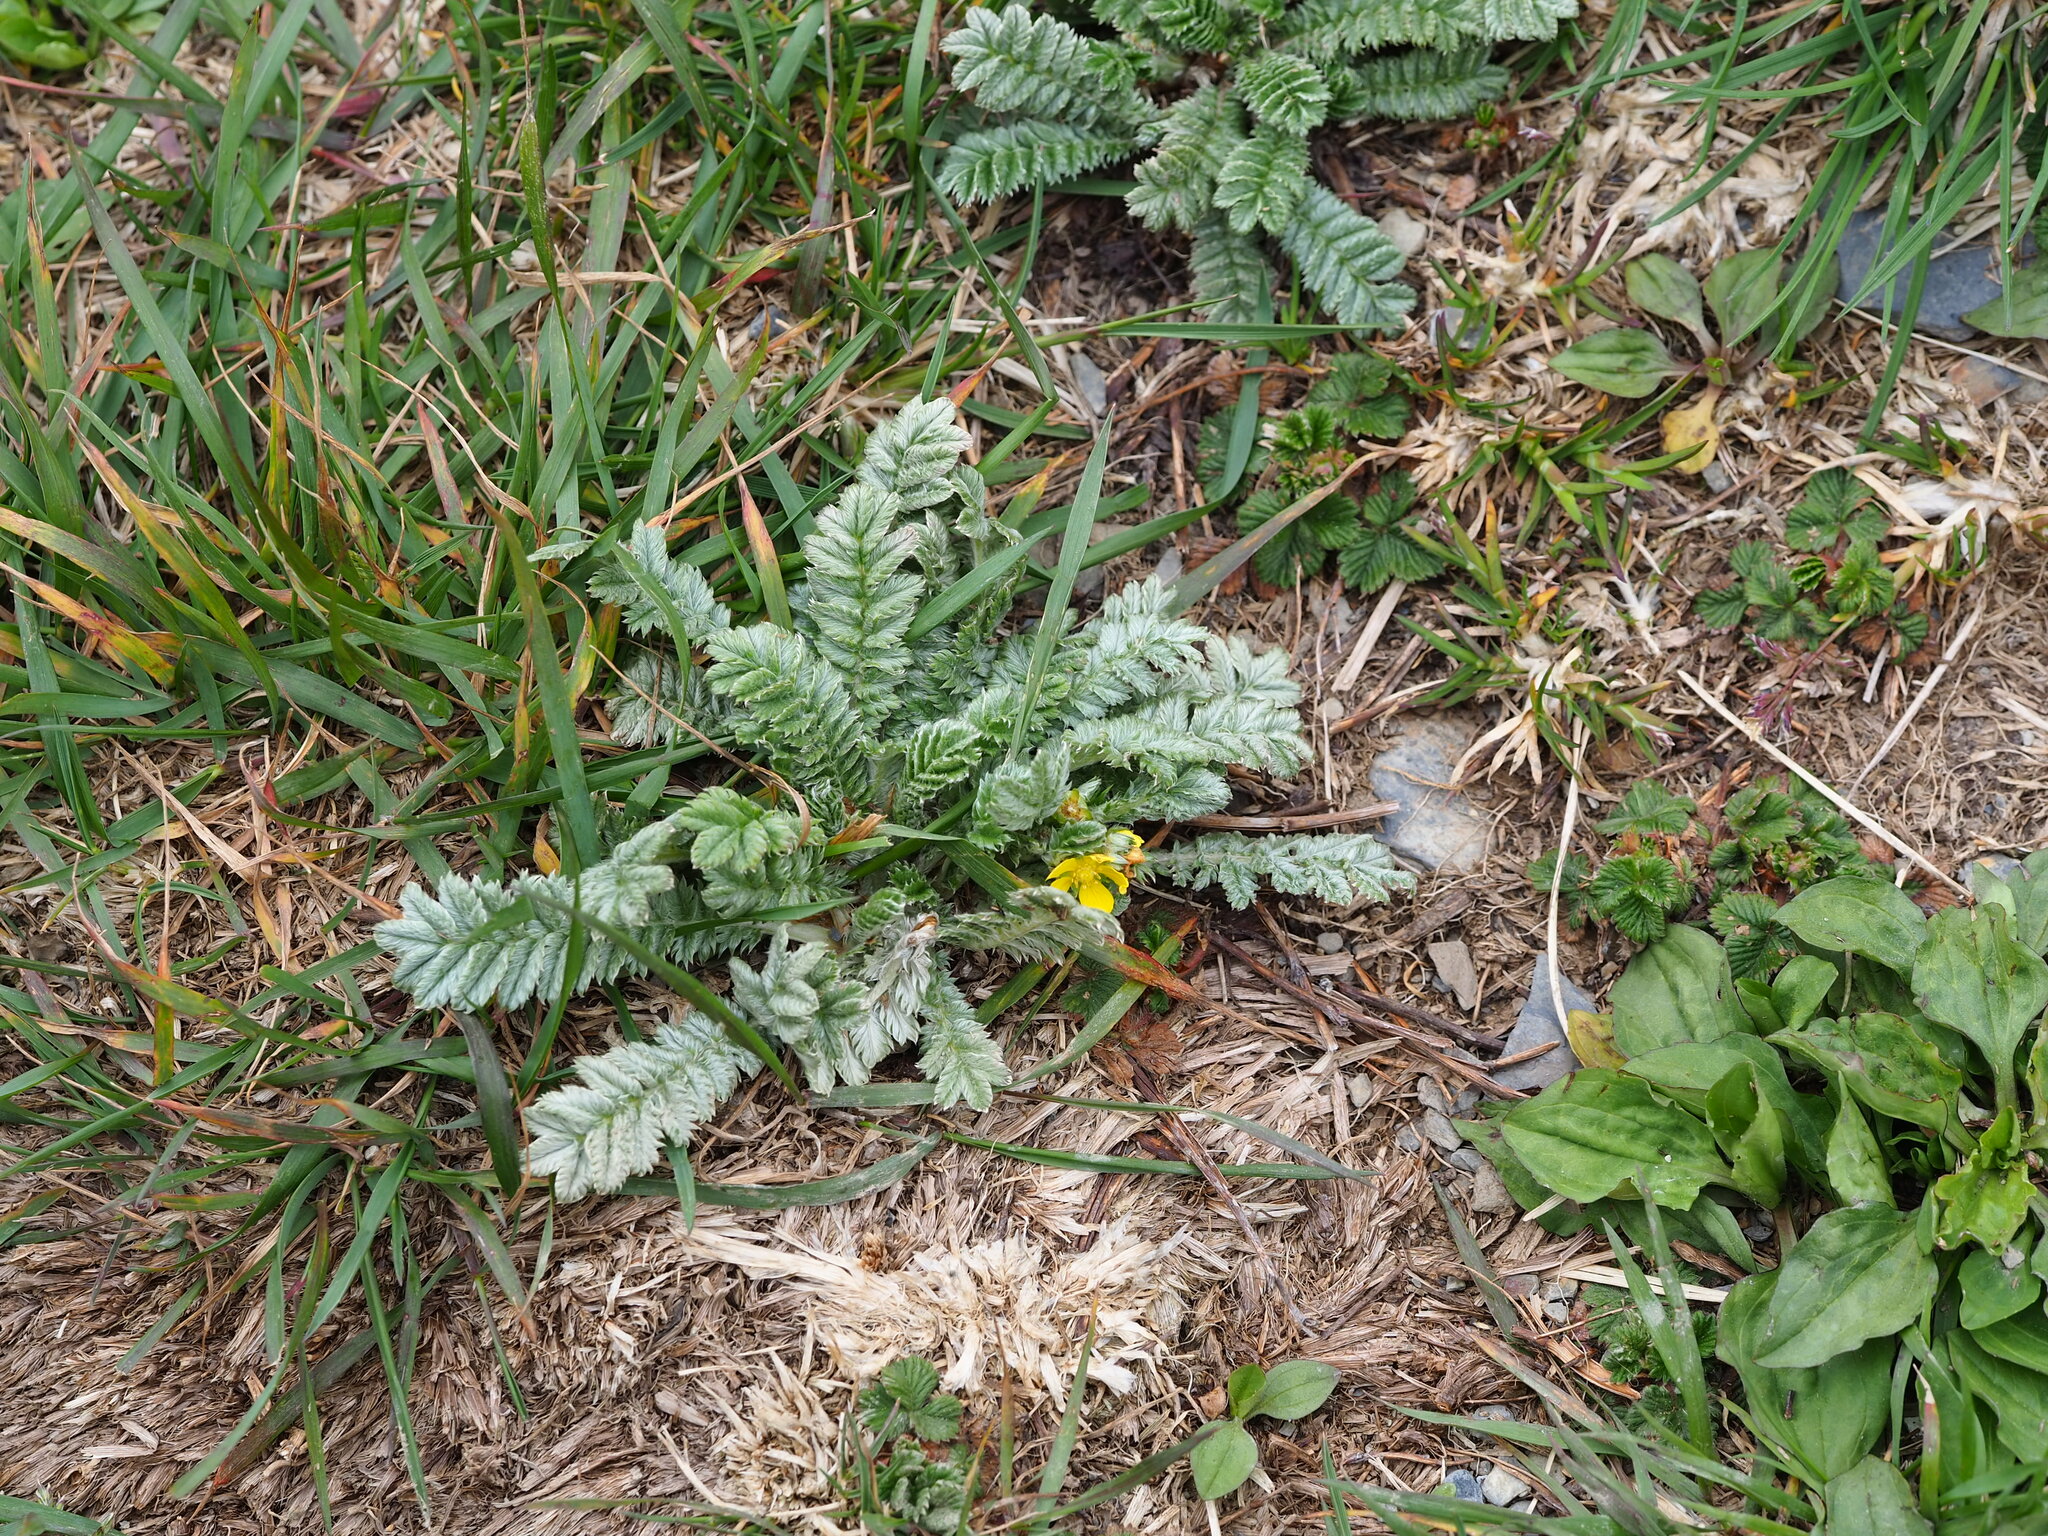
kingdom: Plantae
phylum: Tracheophyta
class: Magnoliopsida
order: Rosales
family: Rosaceae
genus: Argentina
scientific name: Argentina leuconota
